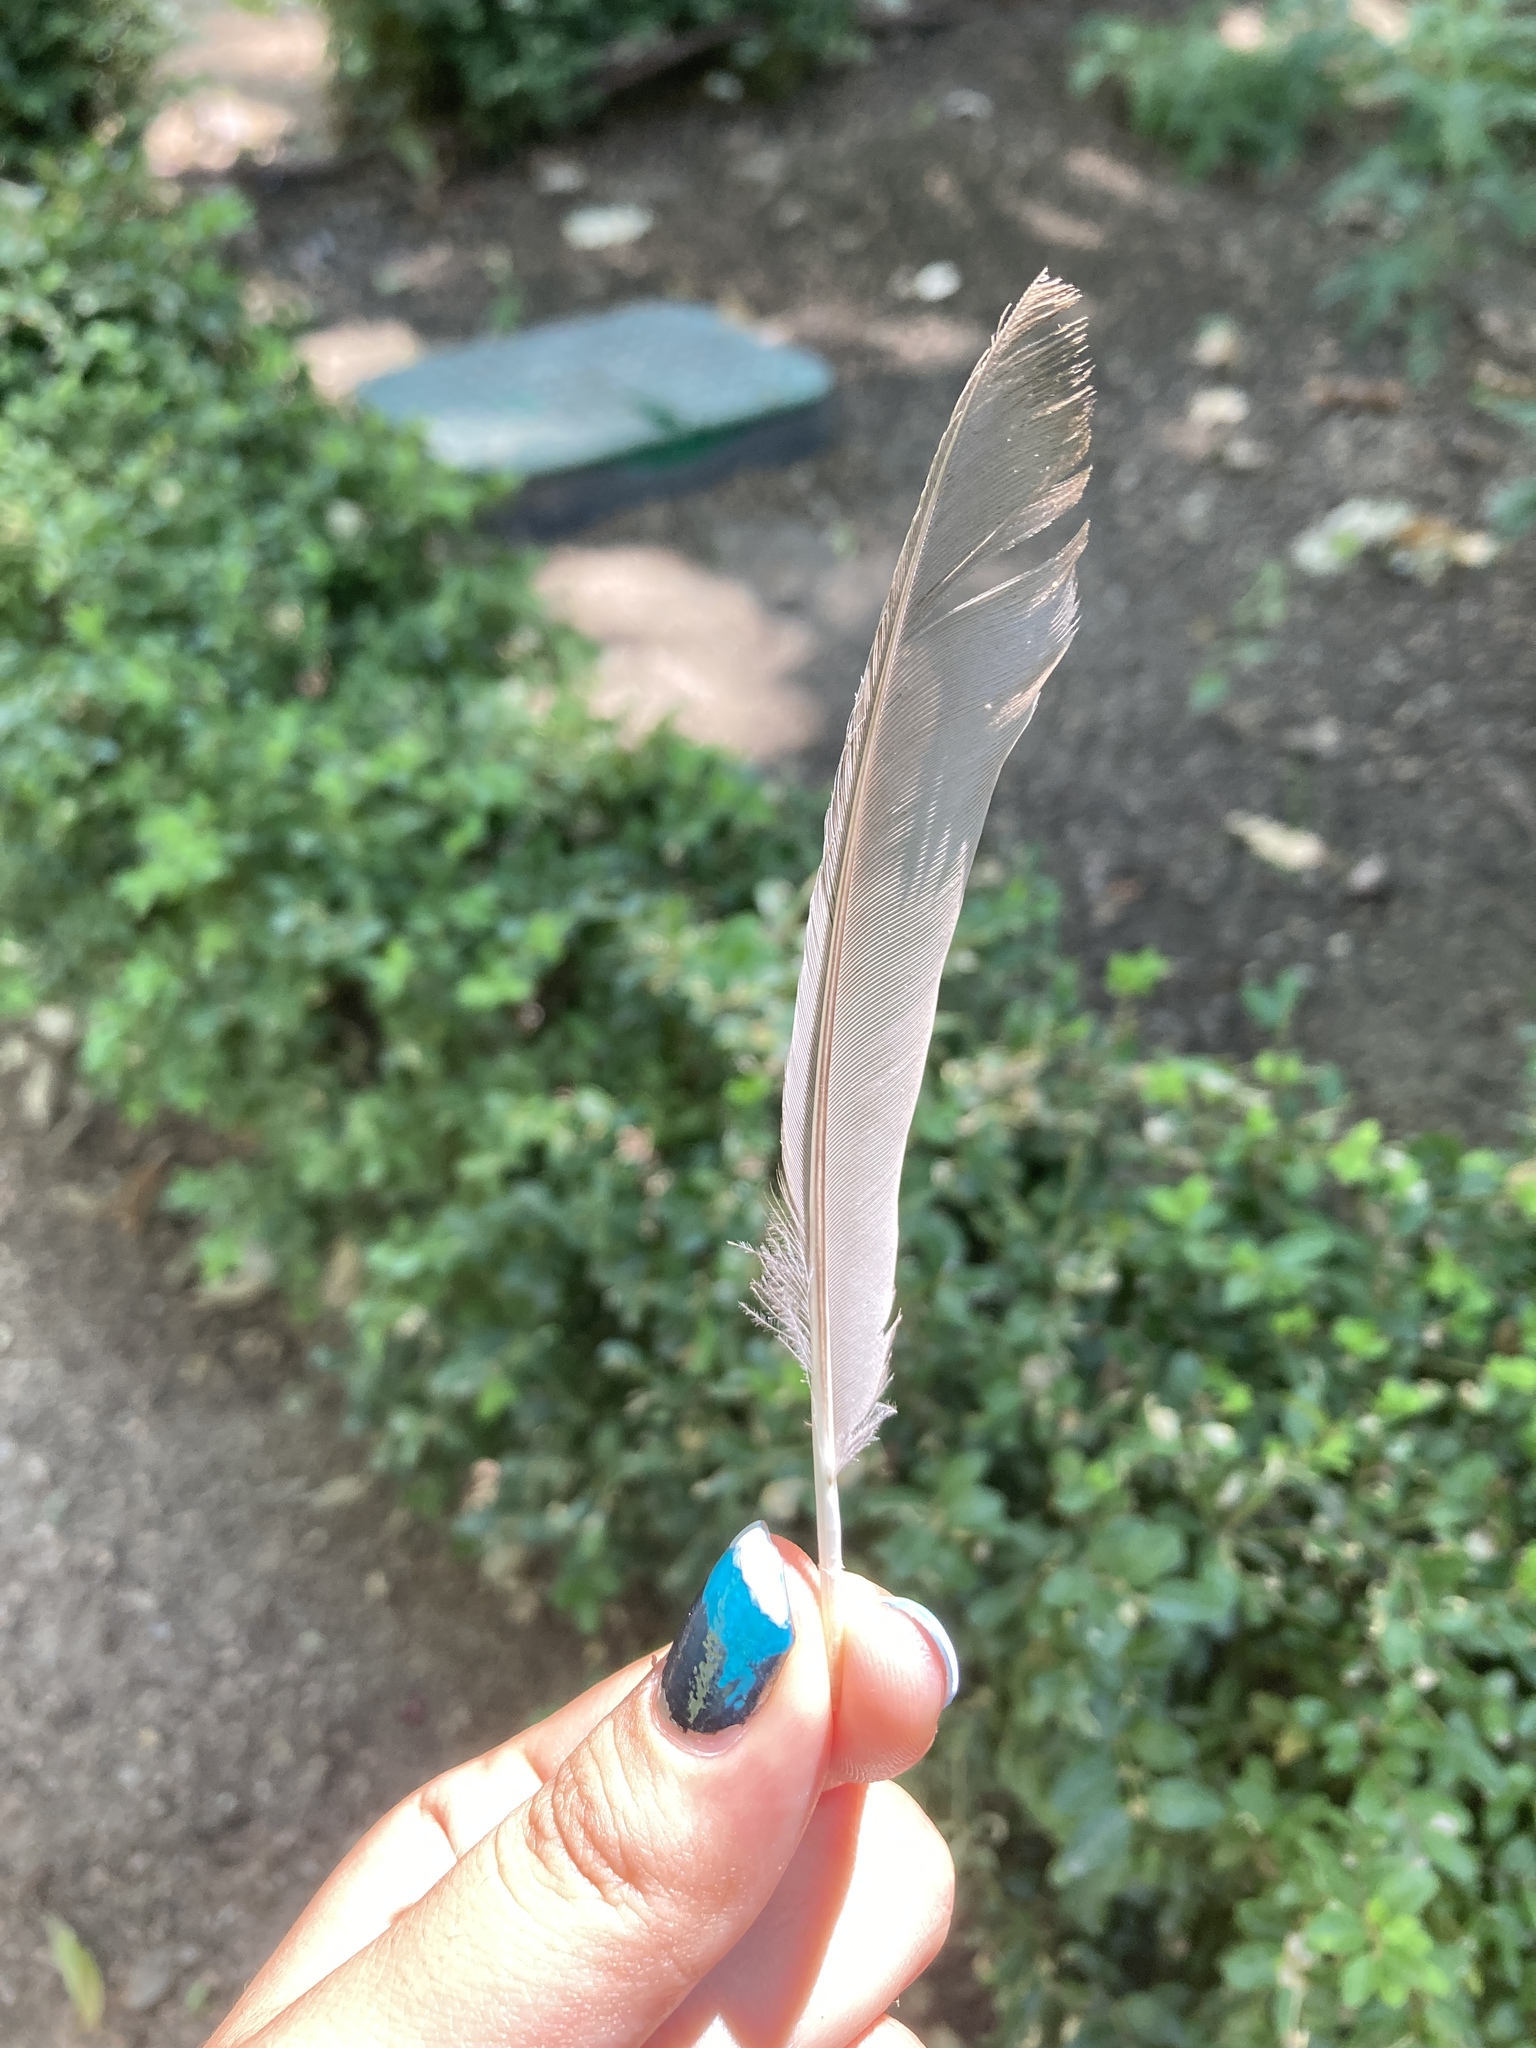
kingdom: Animalia
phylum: Chordata
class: Aves
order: Passeriformes
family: Turdidae
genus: Turdus
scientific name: Turdus merula
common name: Common blackbird
